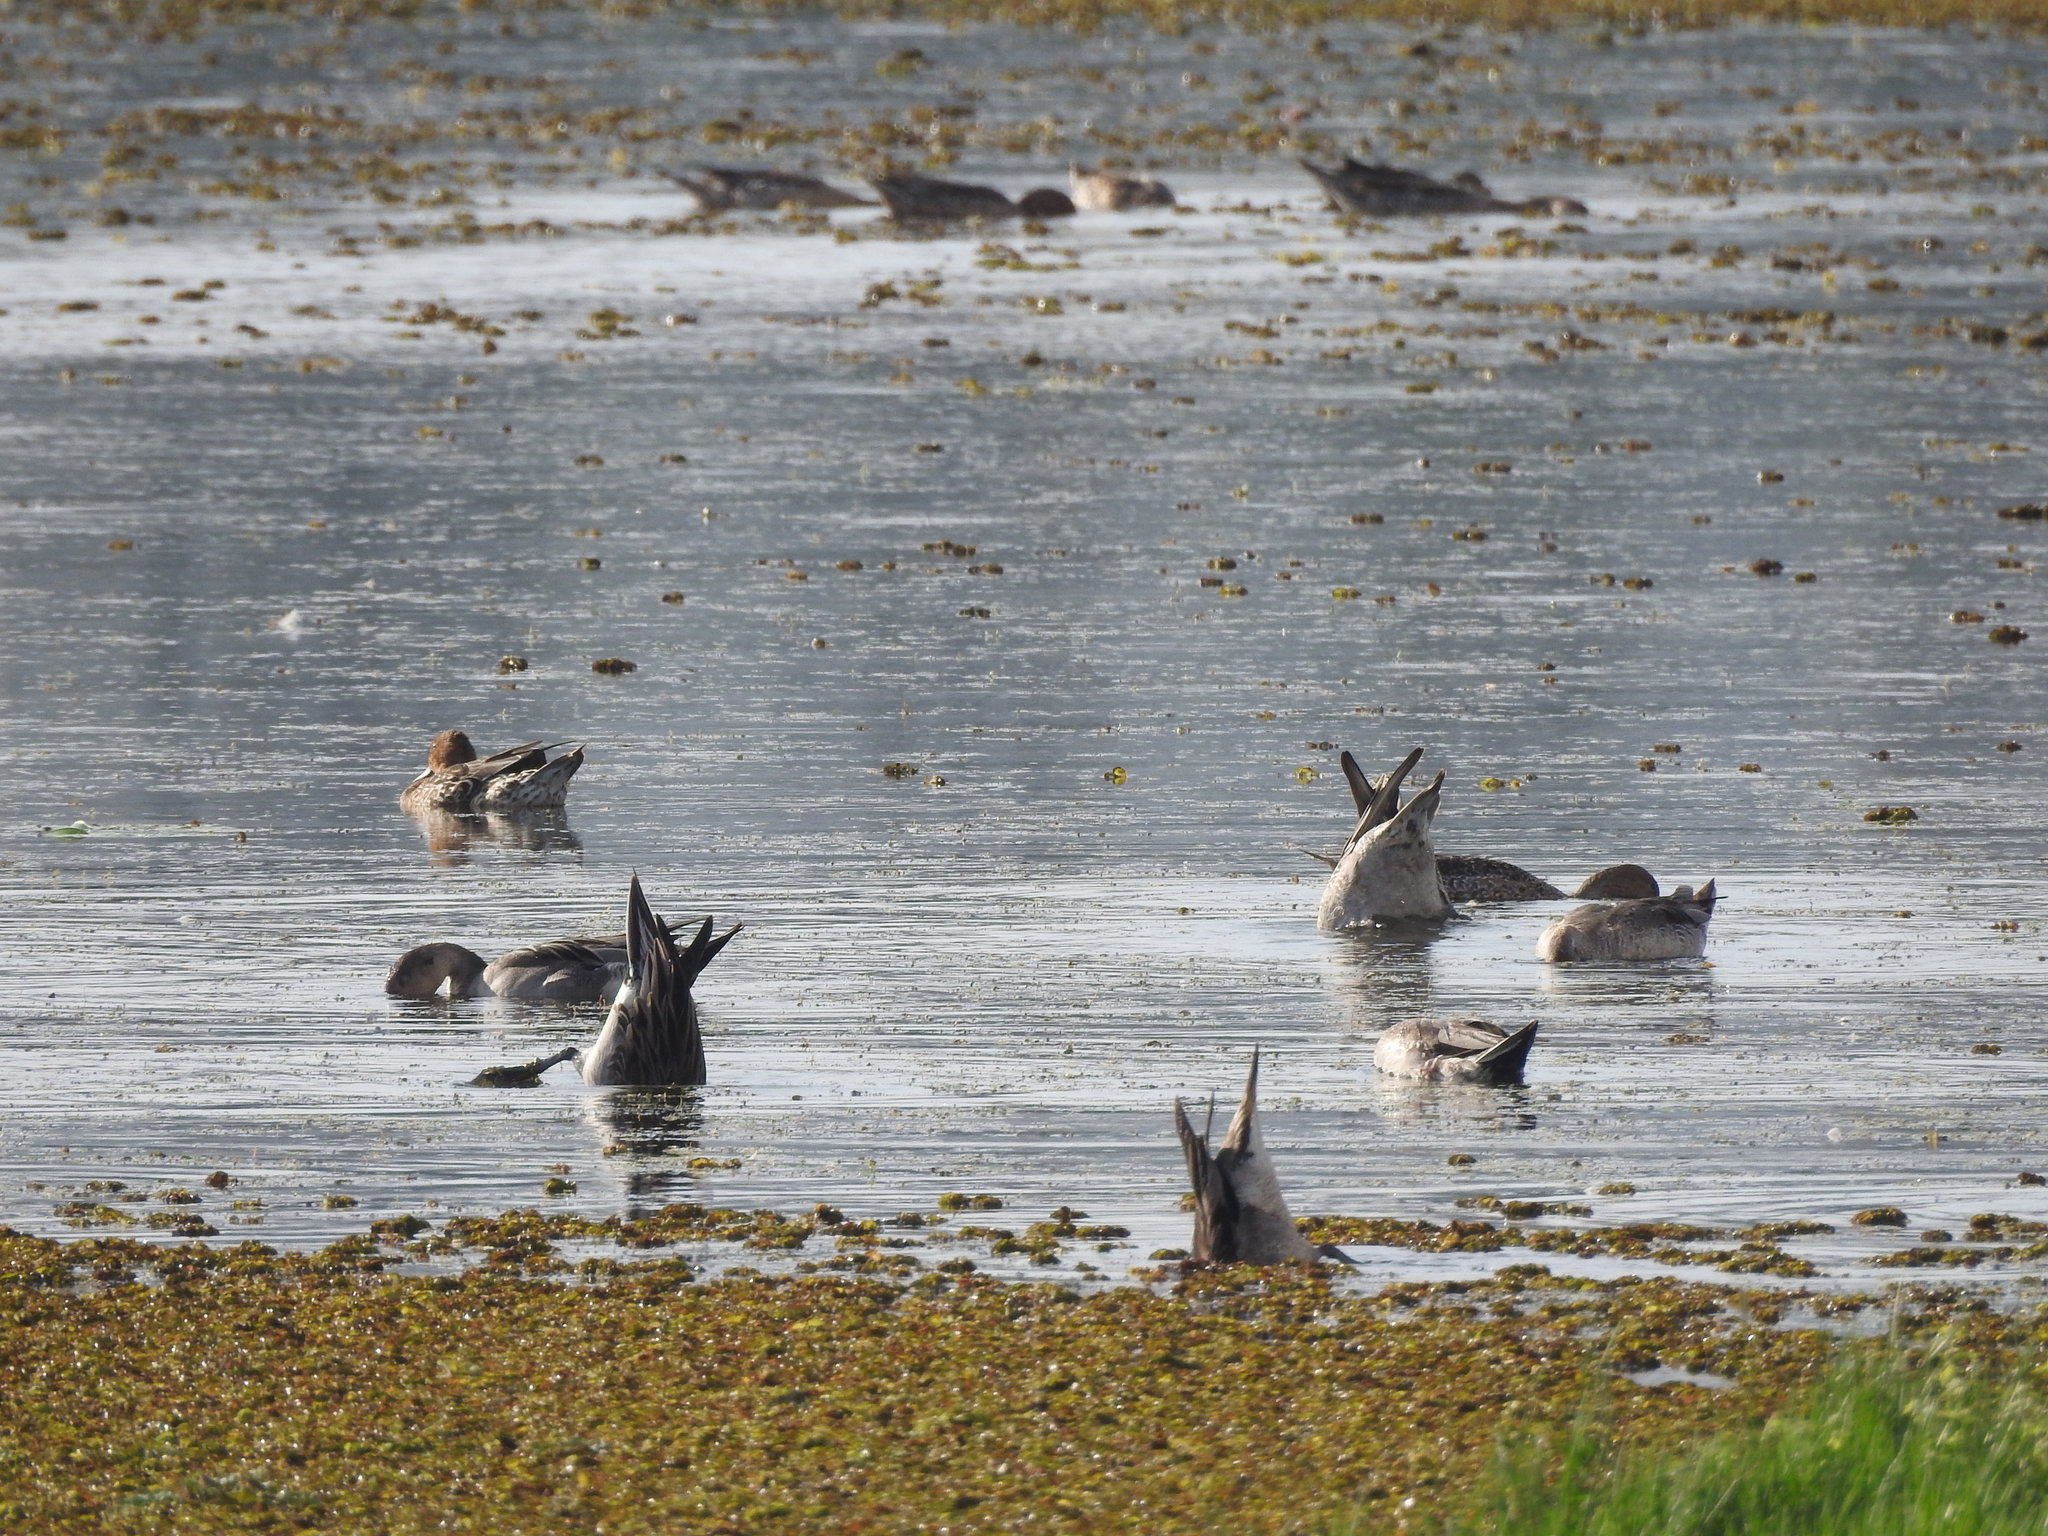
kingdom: Animalia
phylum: Chordata
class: Aves
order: Anseriformes
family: Anatidae
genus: Anas
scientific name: Anas acuta
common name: Northern pintail
